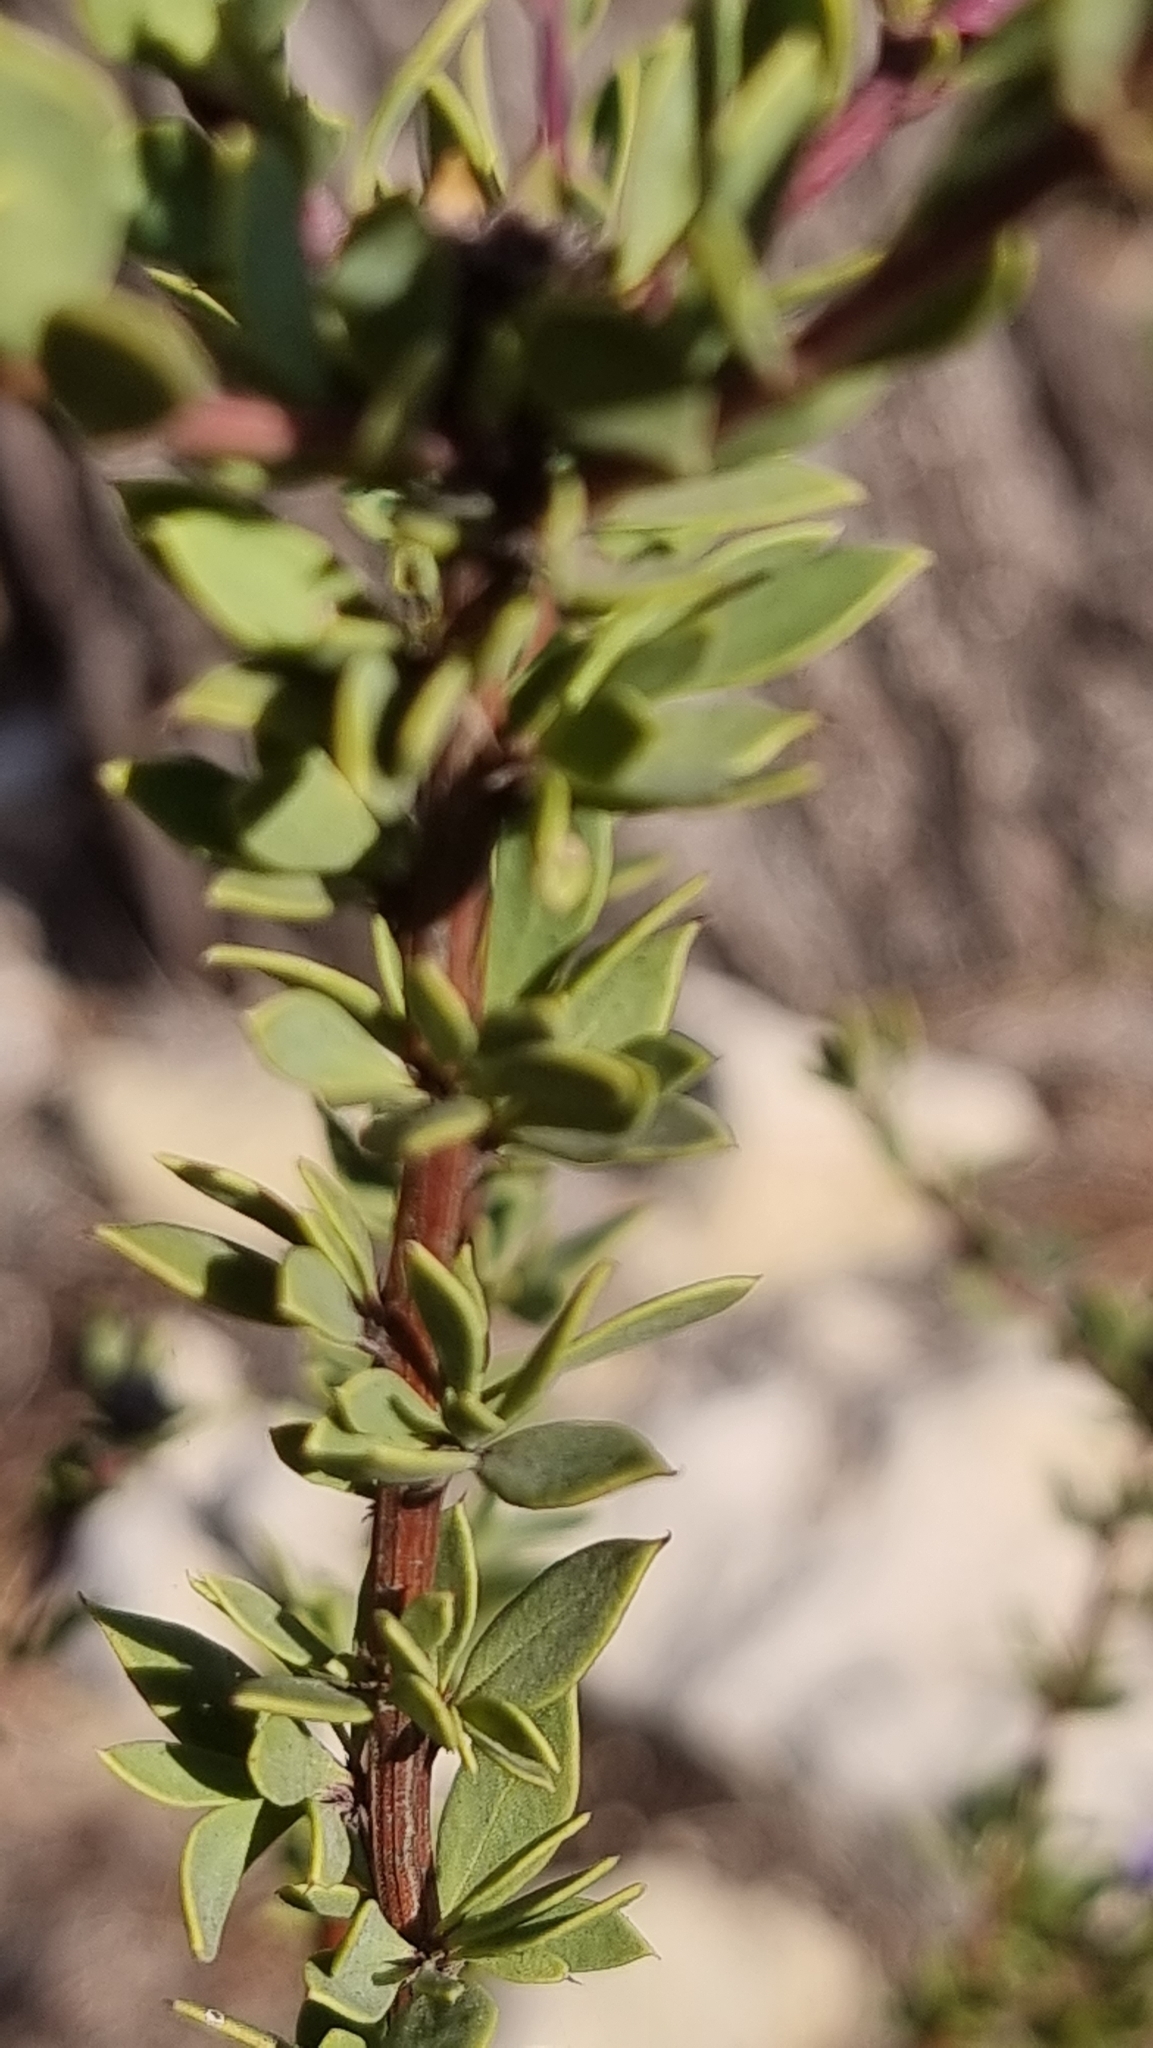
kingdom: Plantae
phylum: Tracheophyta
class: Magnoliopsida
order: Lamiales
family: Plantaginaceae
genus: Globularia
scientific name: Globularia alypum
